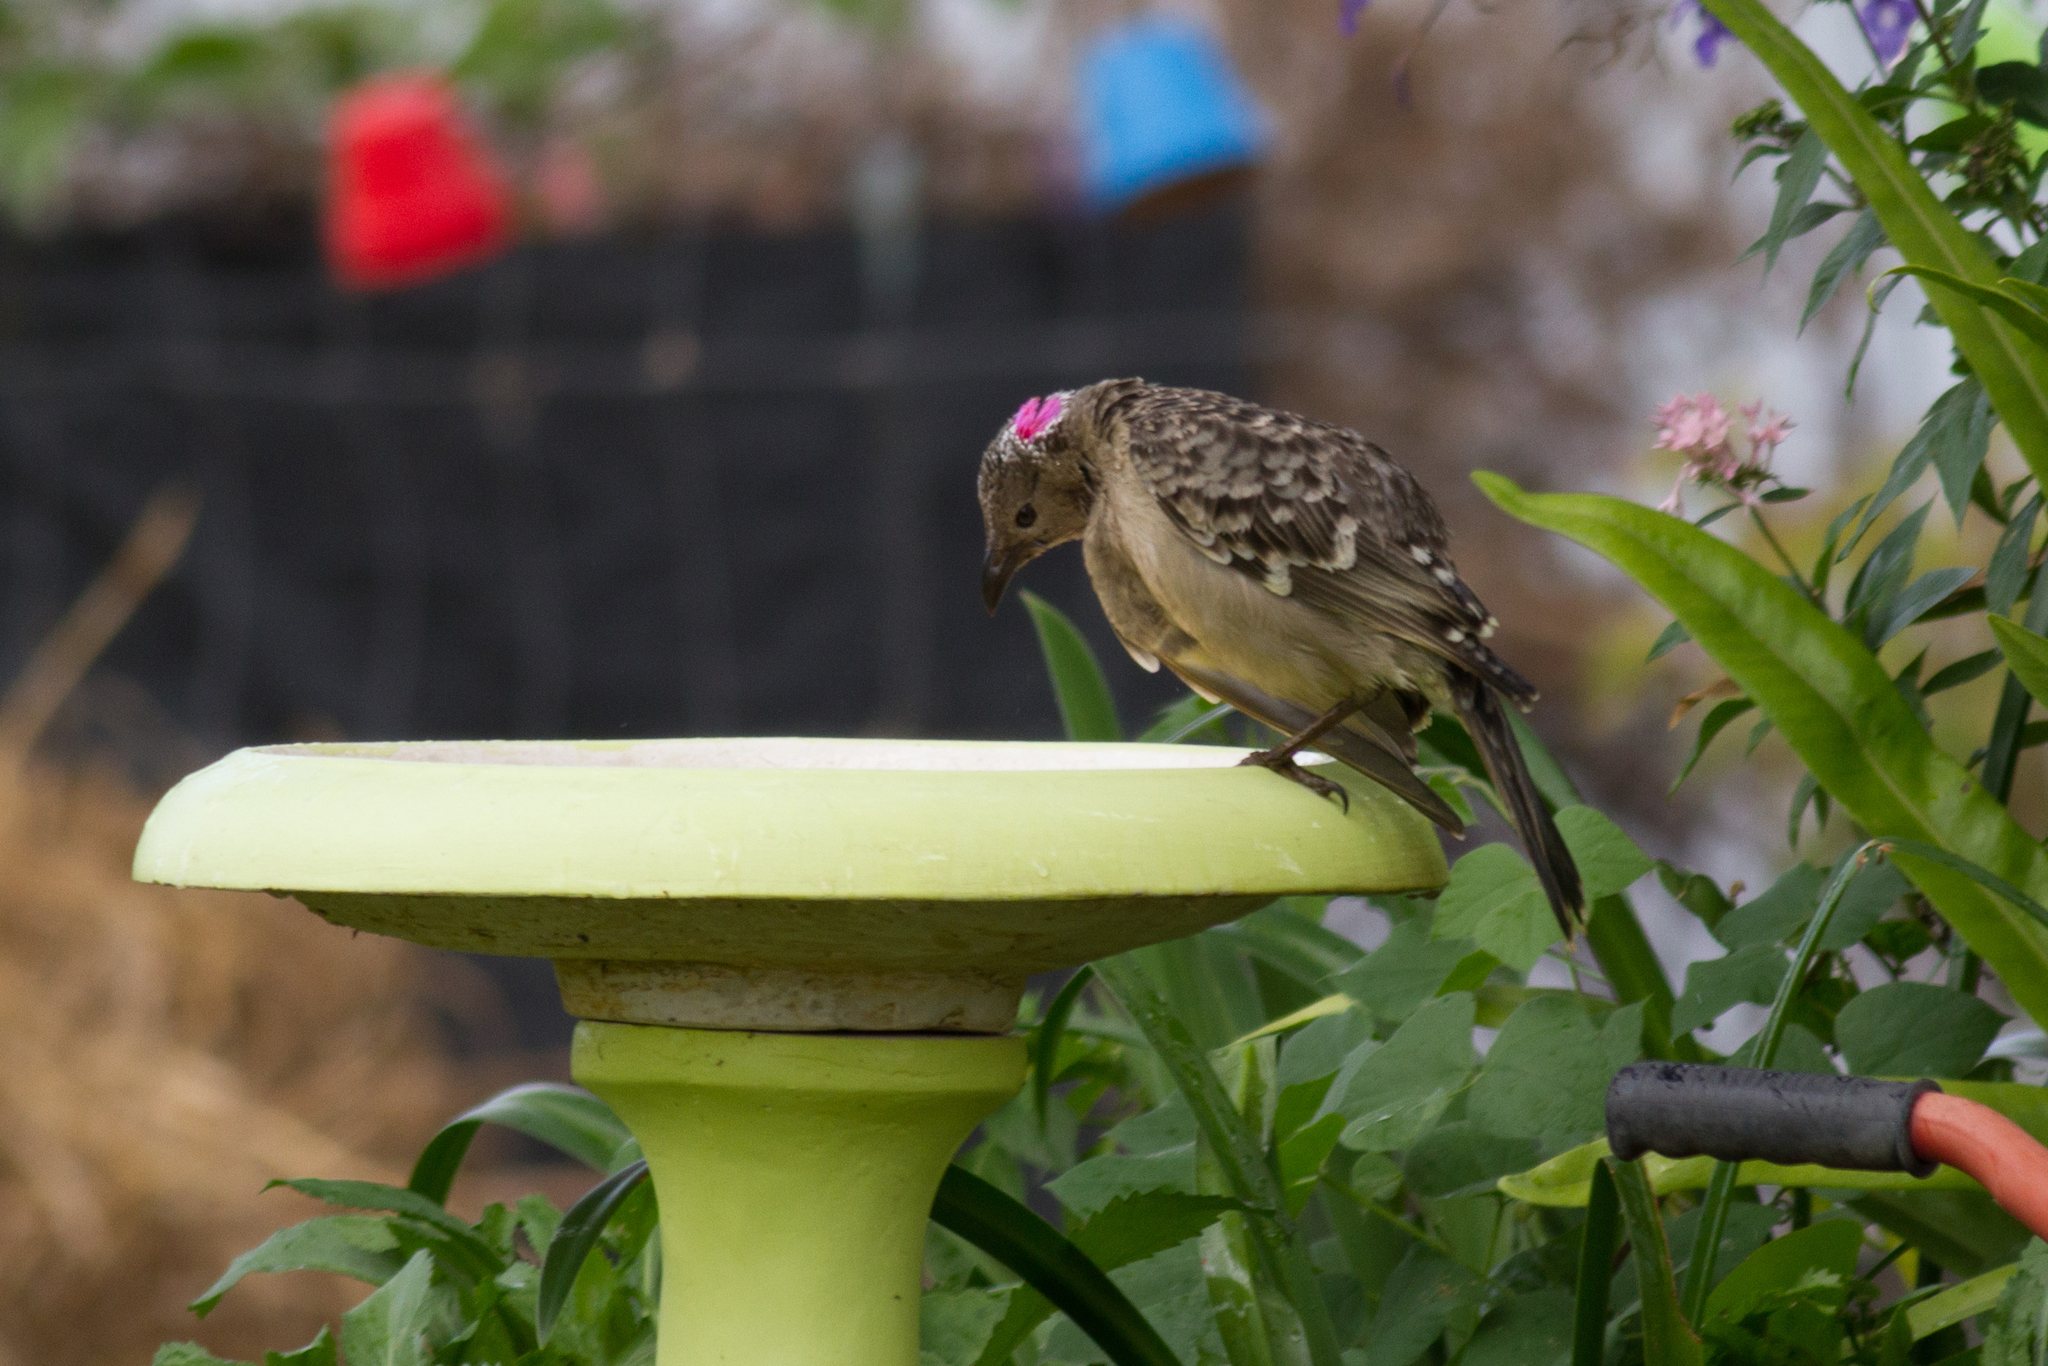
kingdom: Animalia
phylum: Chordata
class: Aves
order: Passeriformes
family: Ptilonorhynchidae
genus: Chlamydera
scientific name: Chlamydera nuchalis
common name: Great bowerbird
